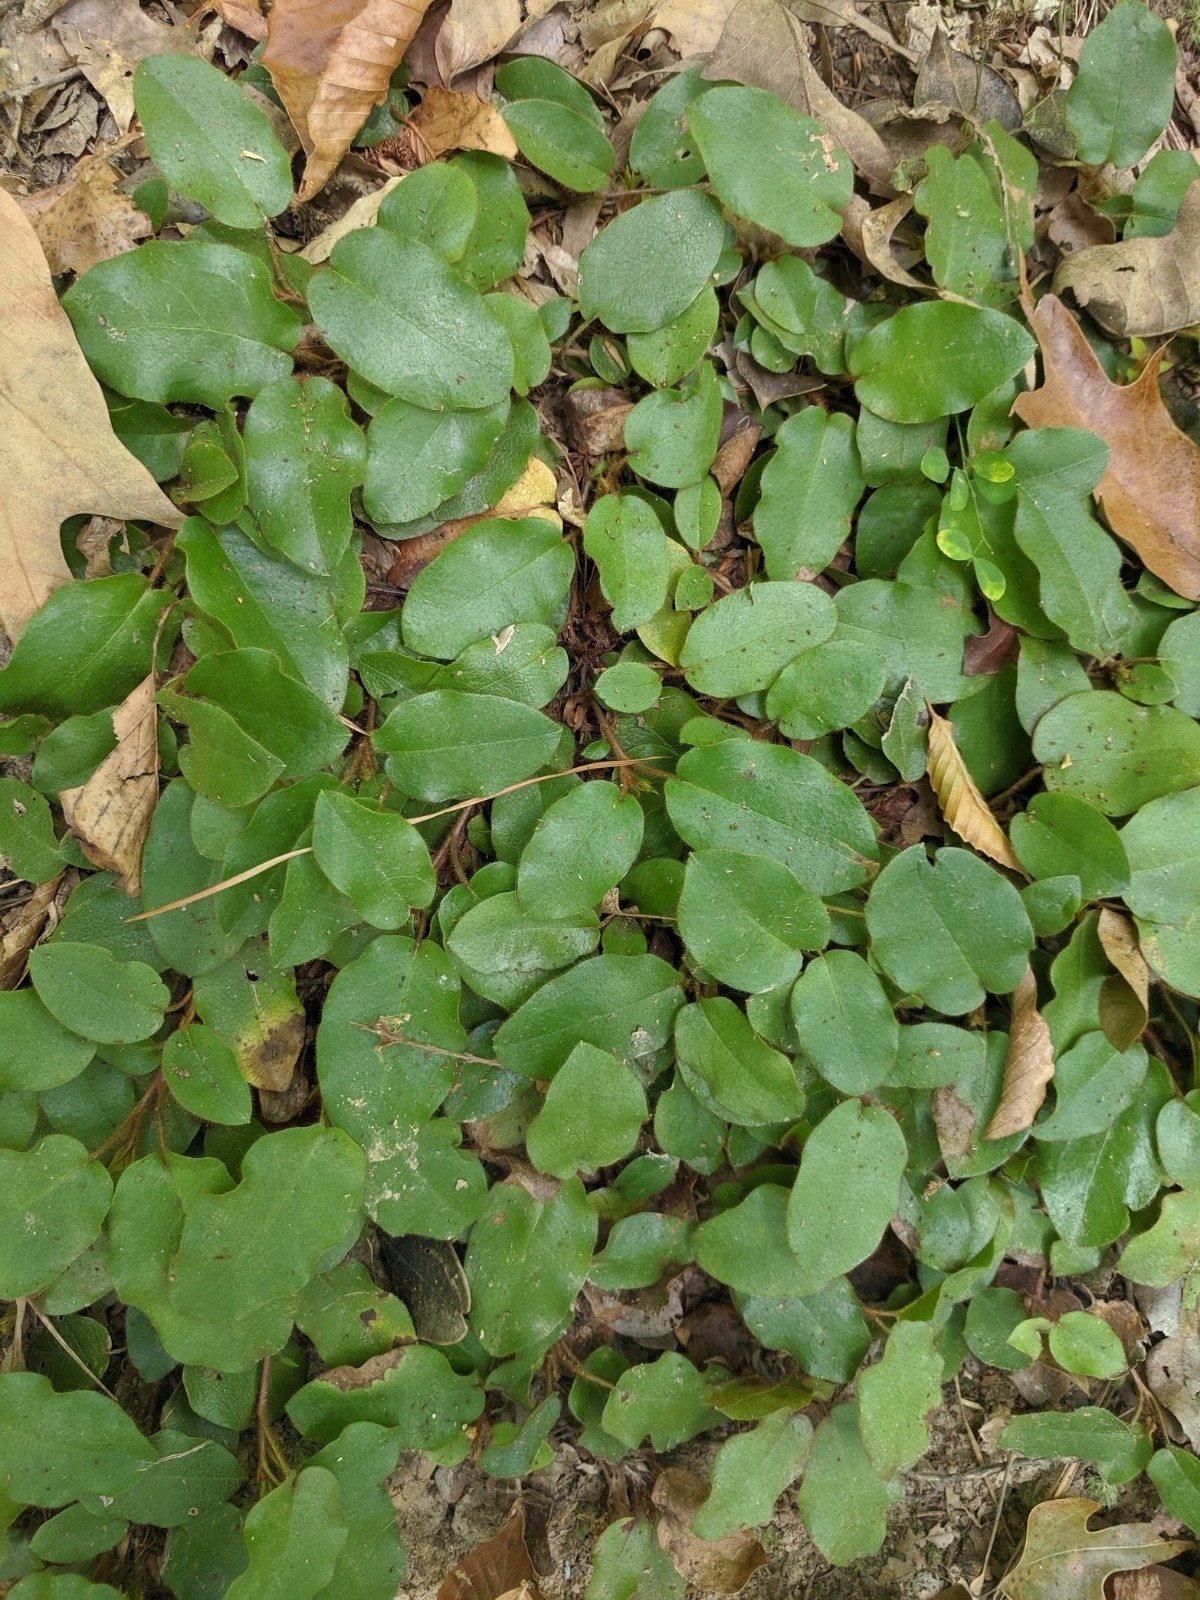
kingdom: Plantae
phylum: Tracheophyta
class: Magnoliopsida
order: Ericales
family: Ericaceae
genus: Epigaea
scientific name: Epigaea repens
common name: Gravelroot
